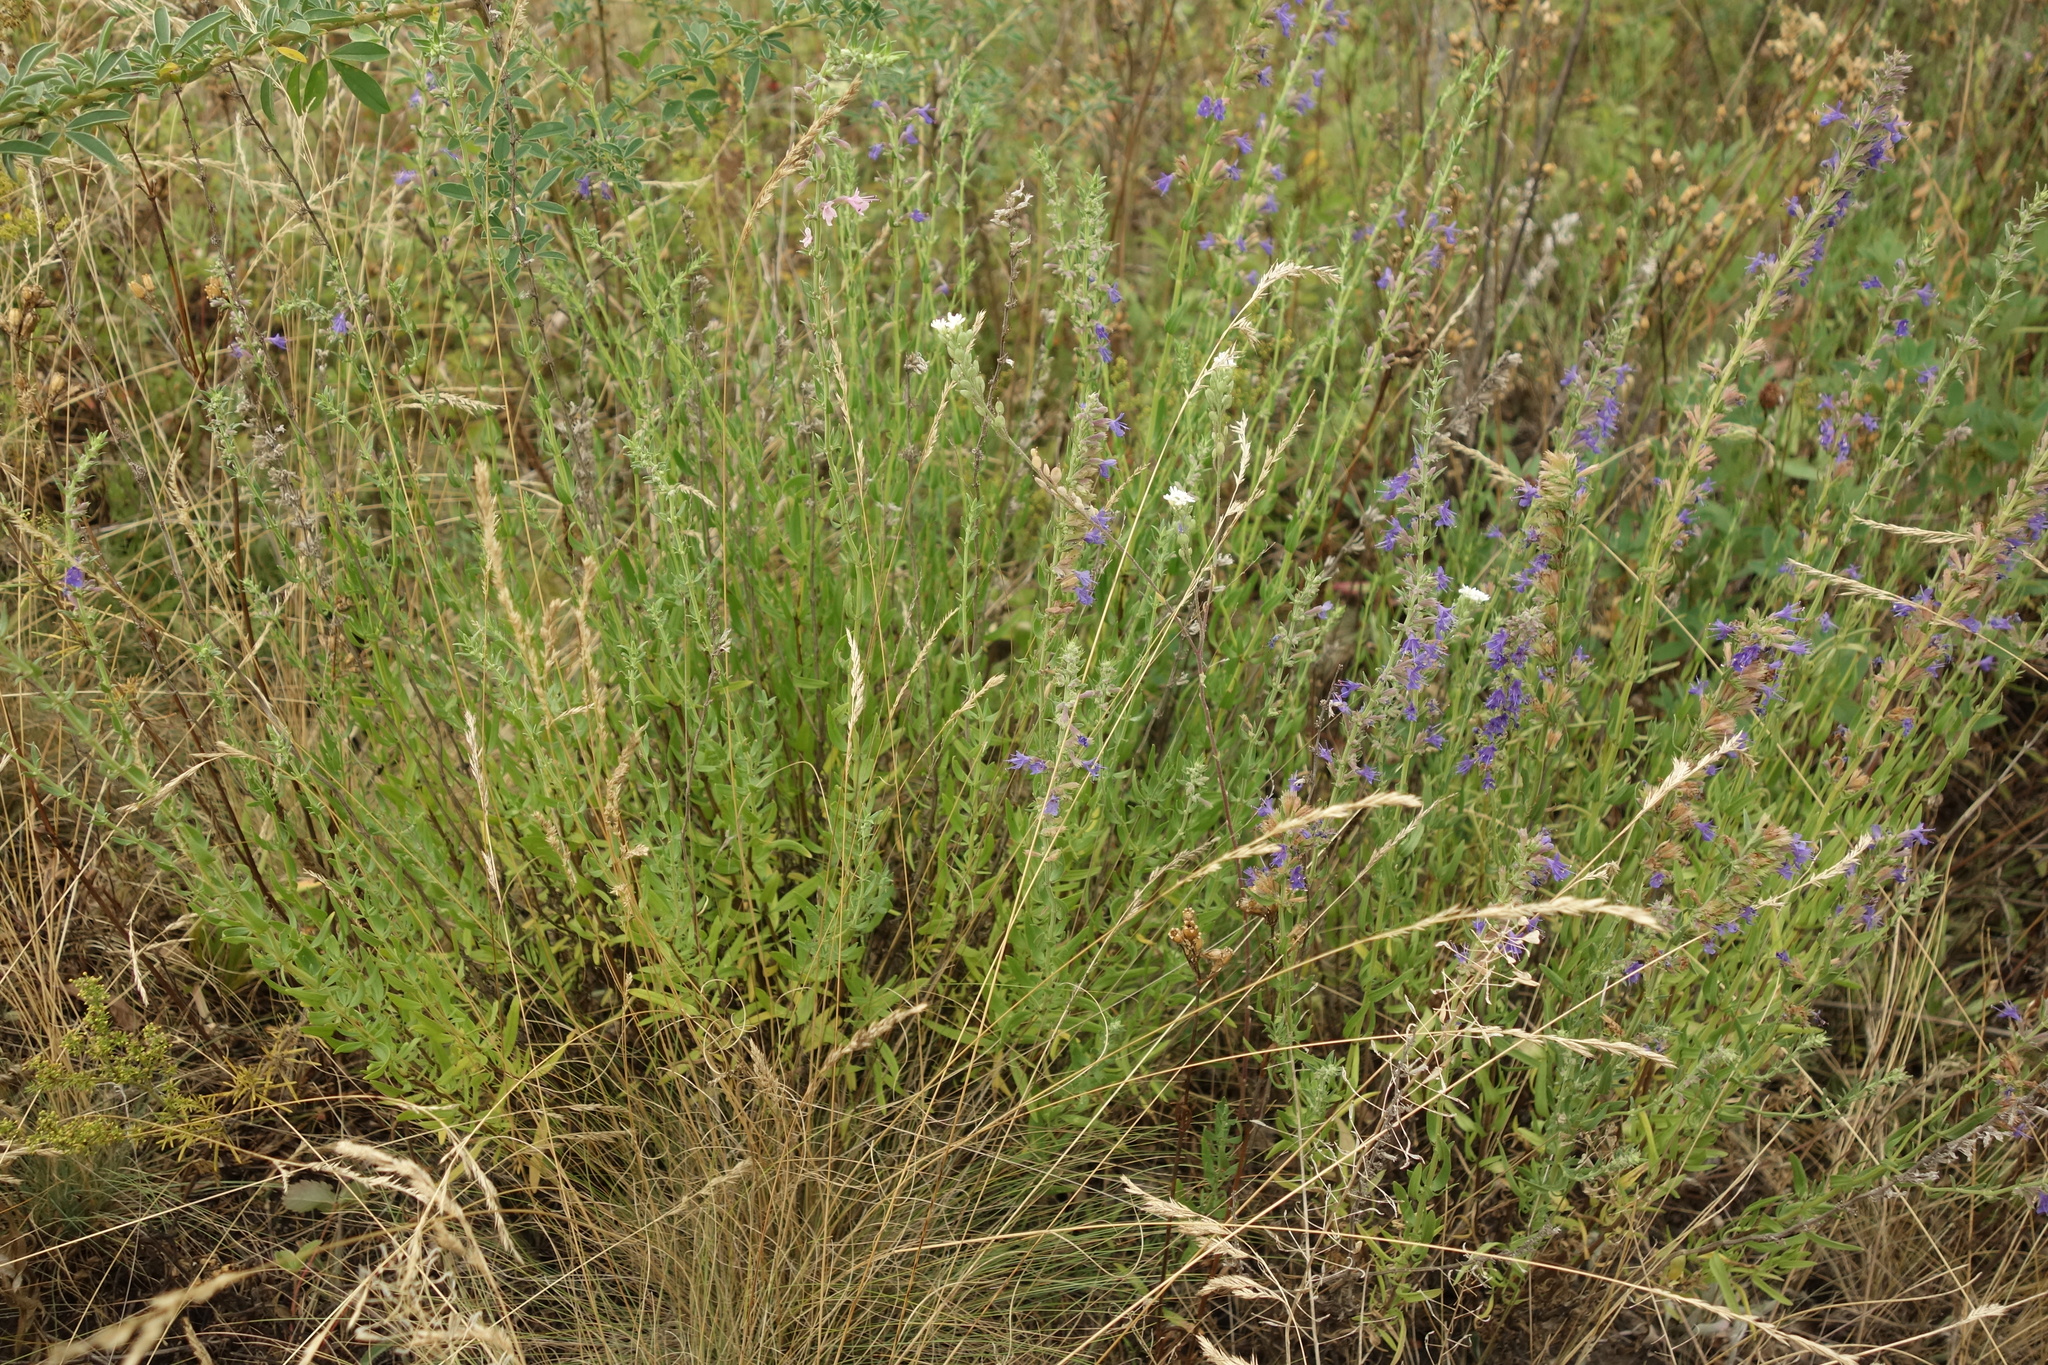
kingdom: Plantae
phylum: Tracheophyta
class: Magnoliopsida
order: Lamiales
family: Lamiaceae
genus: Hyssopus
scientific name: Hyssopus officinalis
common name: Hyssop
